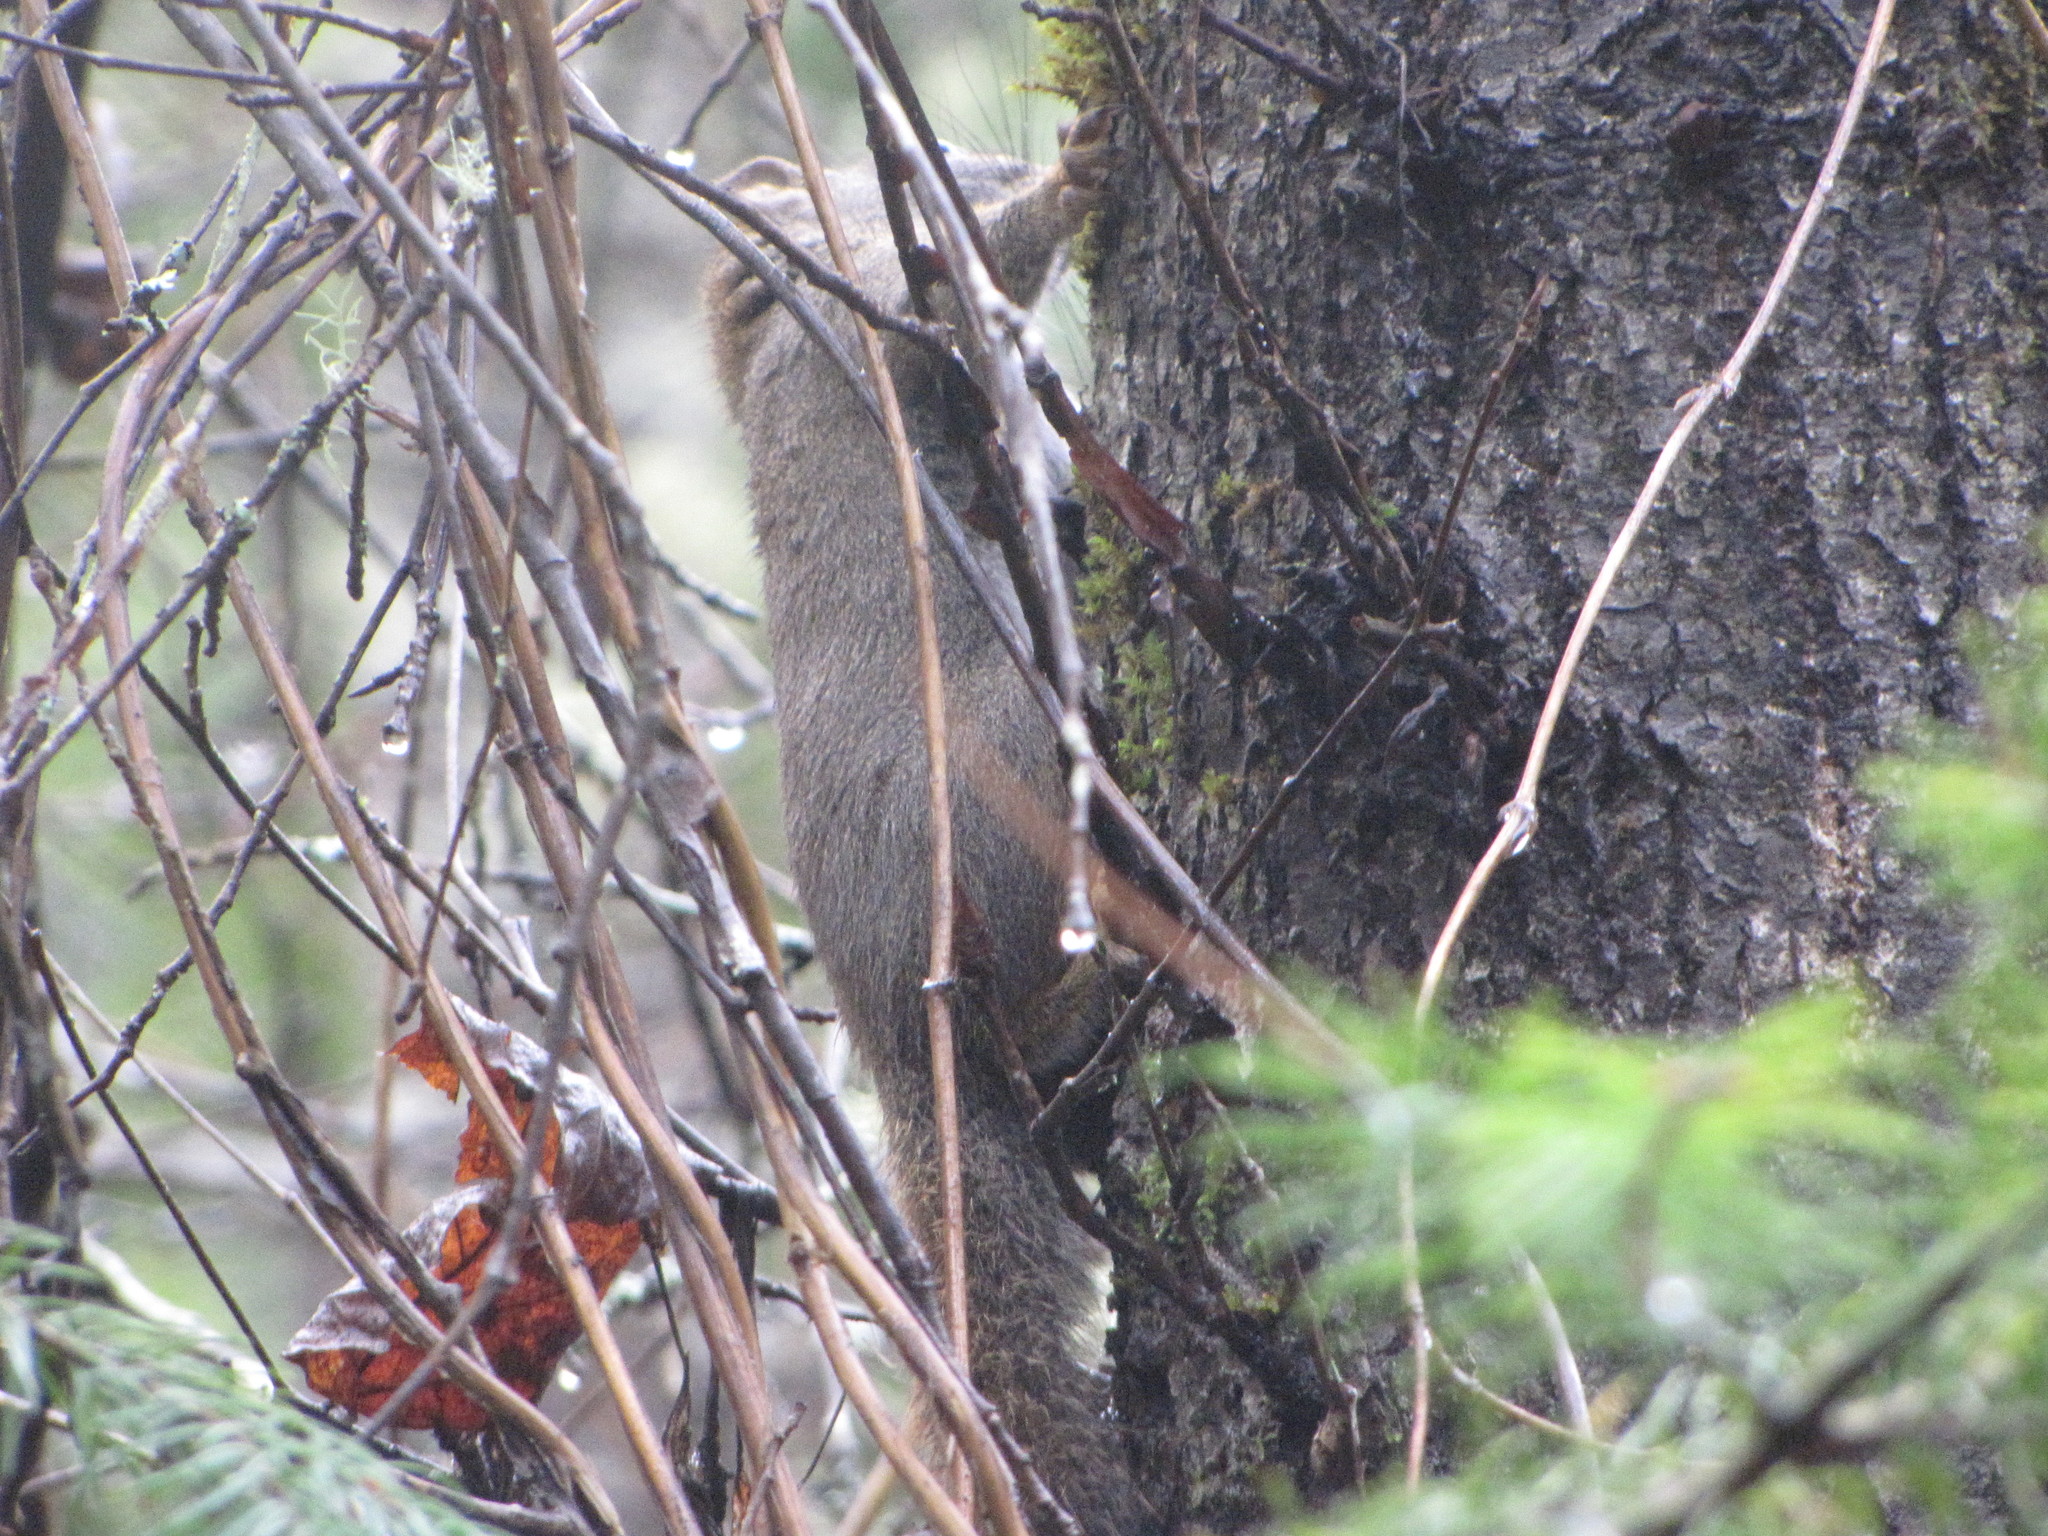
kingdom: Animalia
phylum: Chordata
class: Mammalia
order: Rodentia
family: Sciuridae
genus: Tamiasciurus
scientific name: Tamiasciurus hudsonicus
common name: Red squirrel
